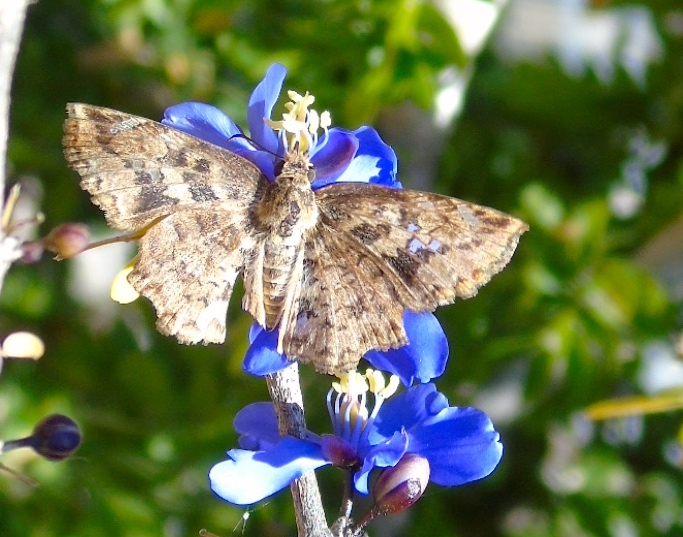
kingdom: Animalia
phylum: Arthropoda
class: Insecta
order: Lepidoptera
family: Hesperiidae
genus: Antigonus
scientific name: Antigonus erosus
